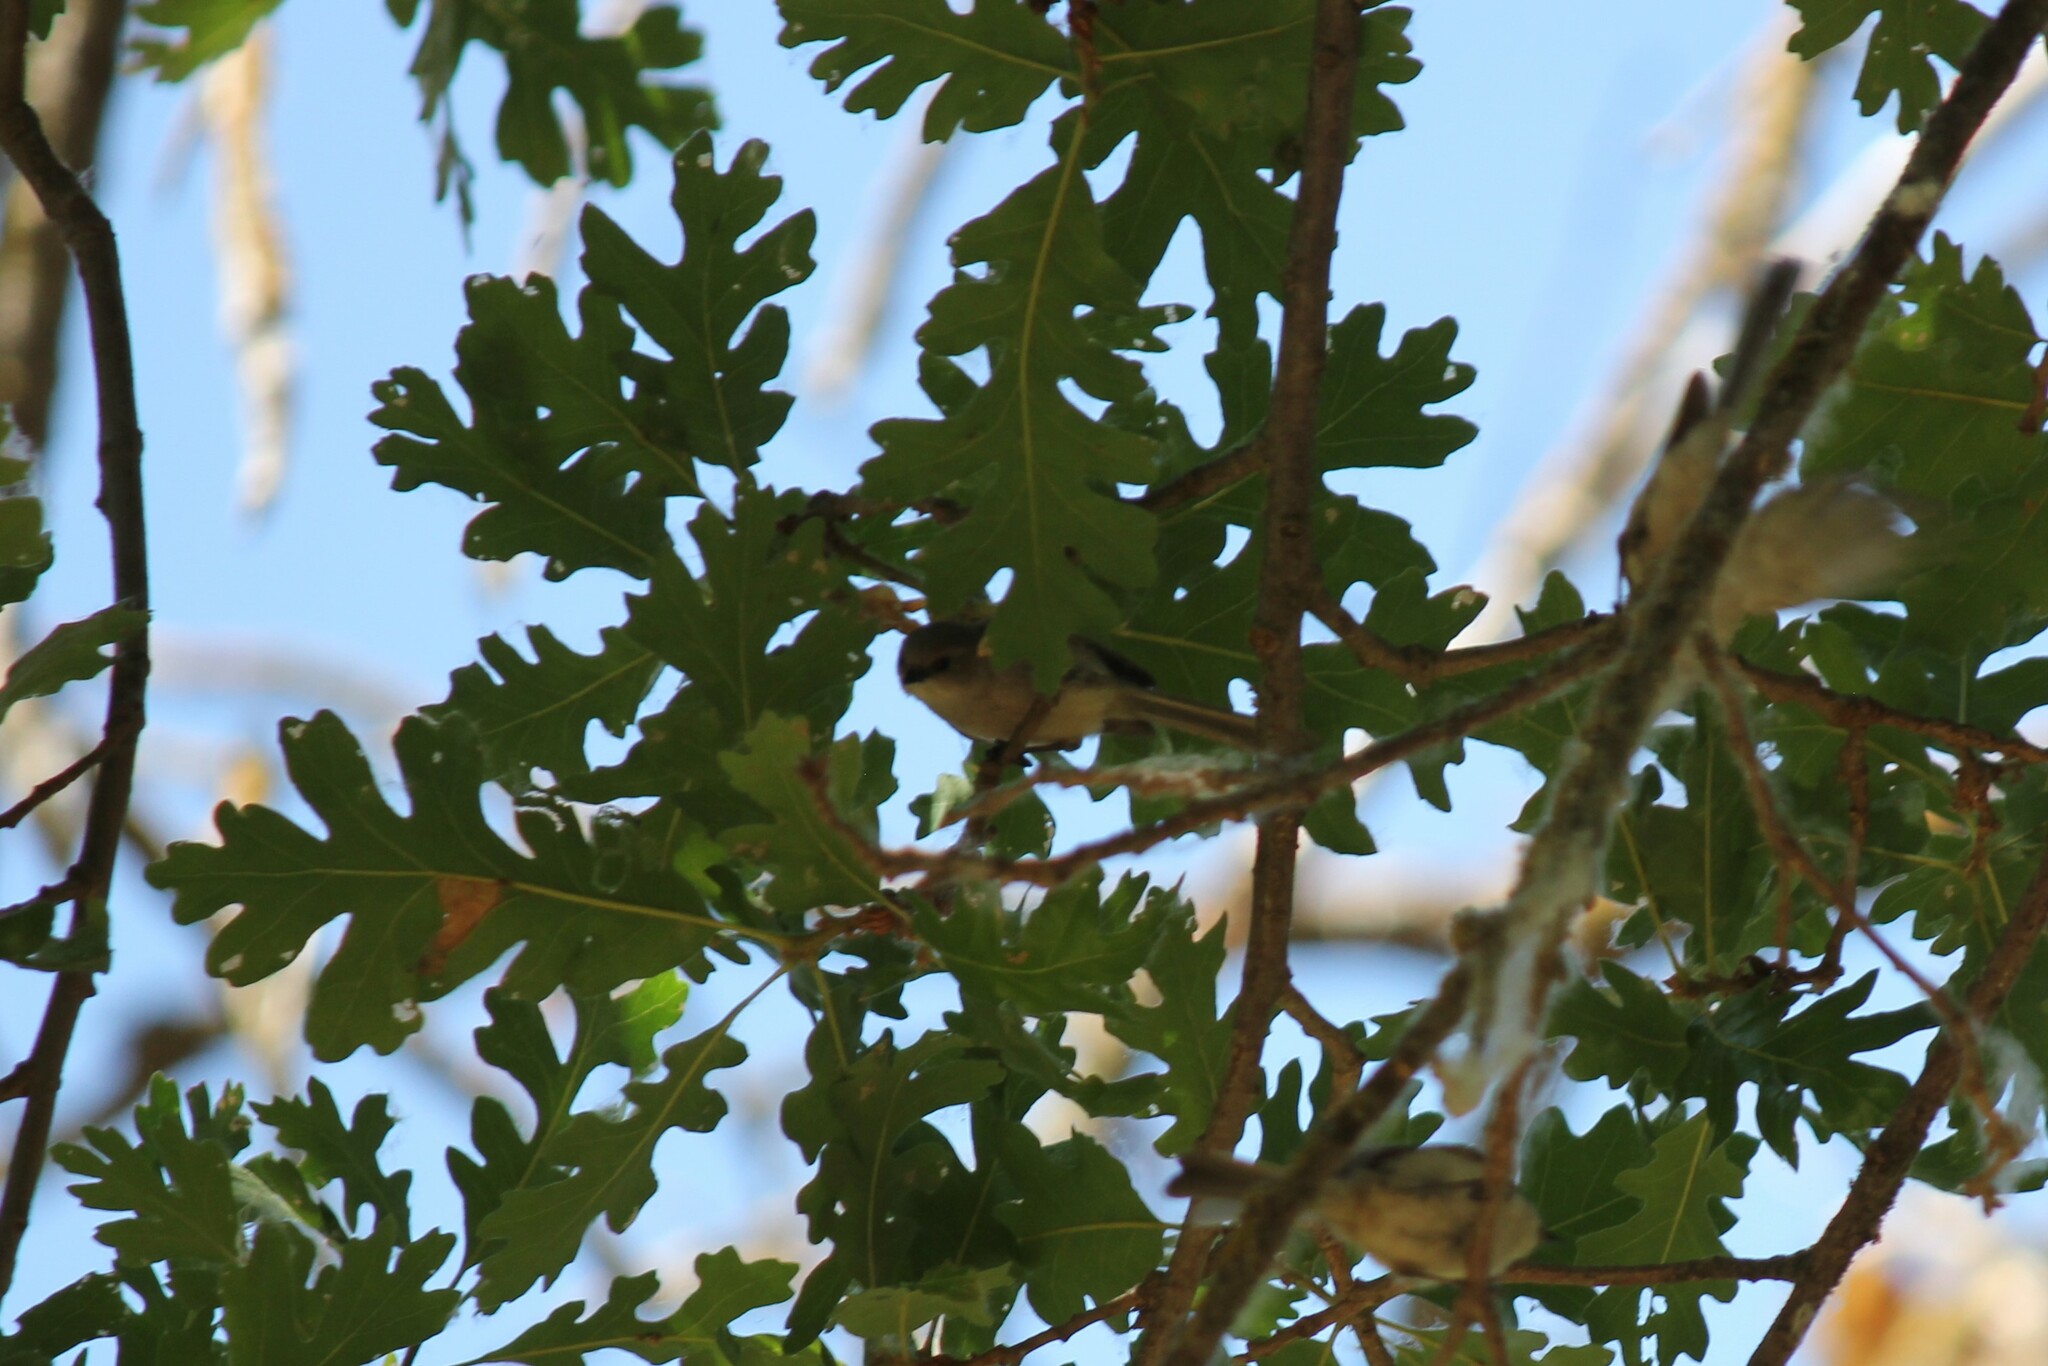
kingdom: Animalia
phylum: Chordata
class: Aves
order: Passeriformes
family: Aegithalidae
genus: Psaltriparus
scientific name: Psaltriparus minimus
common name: American bushtit
